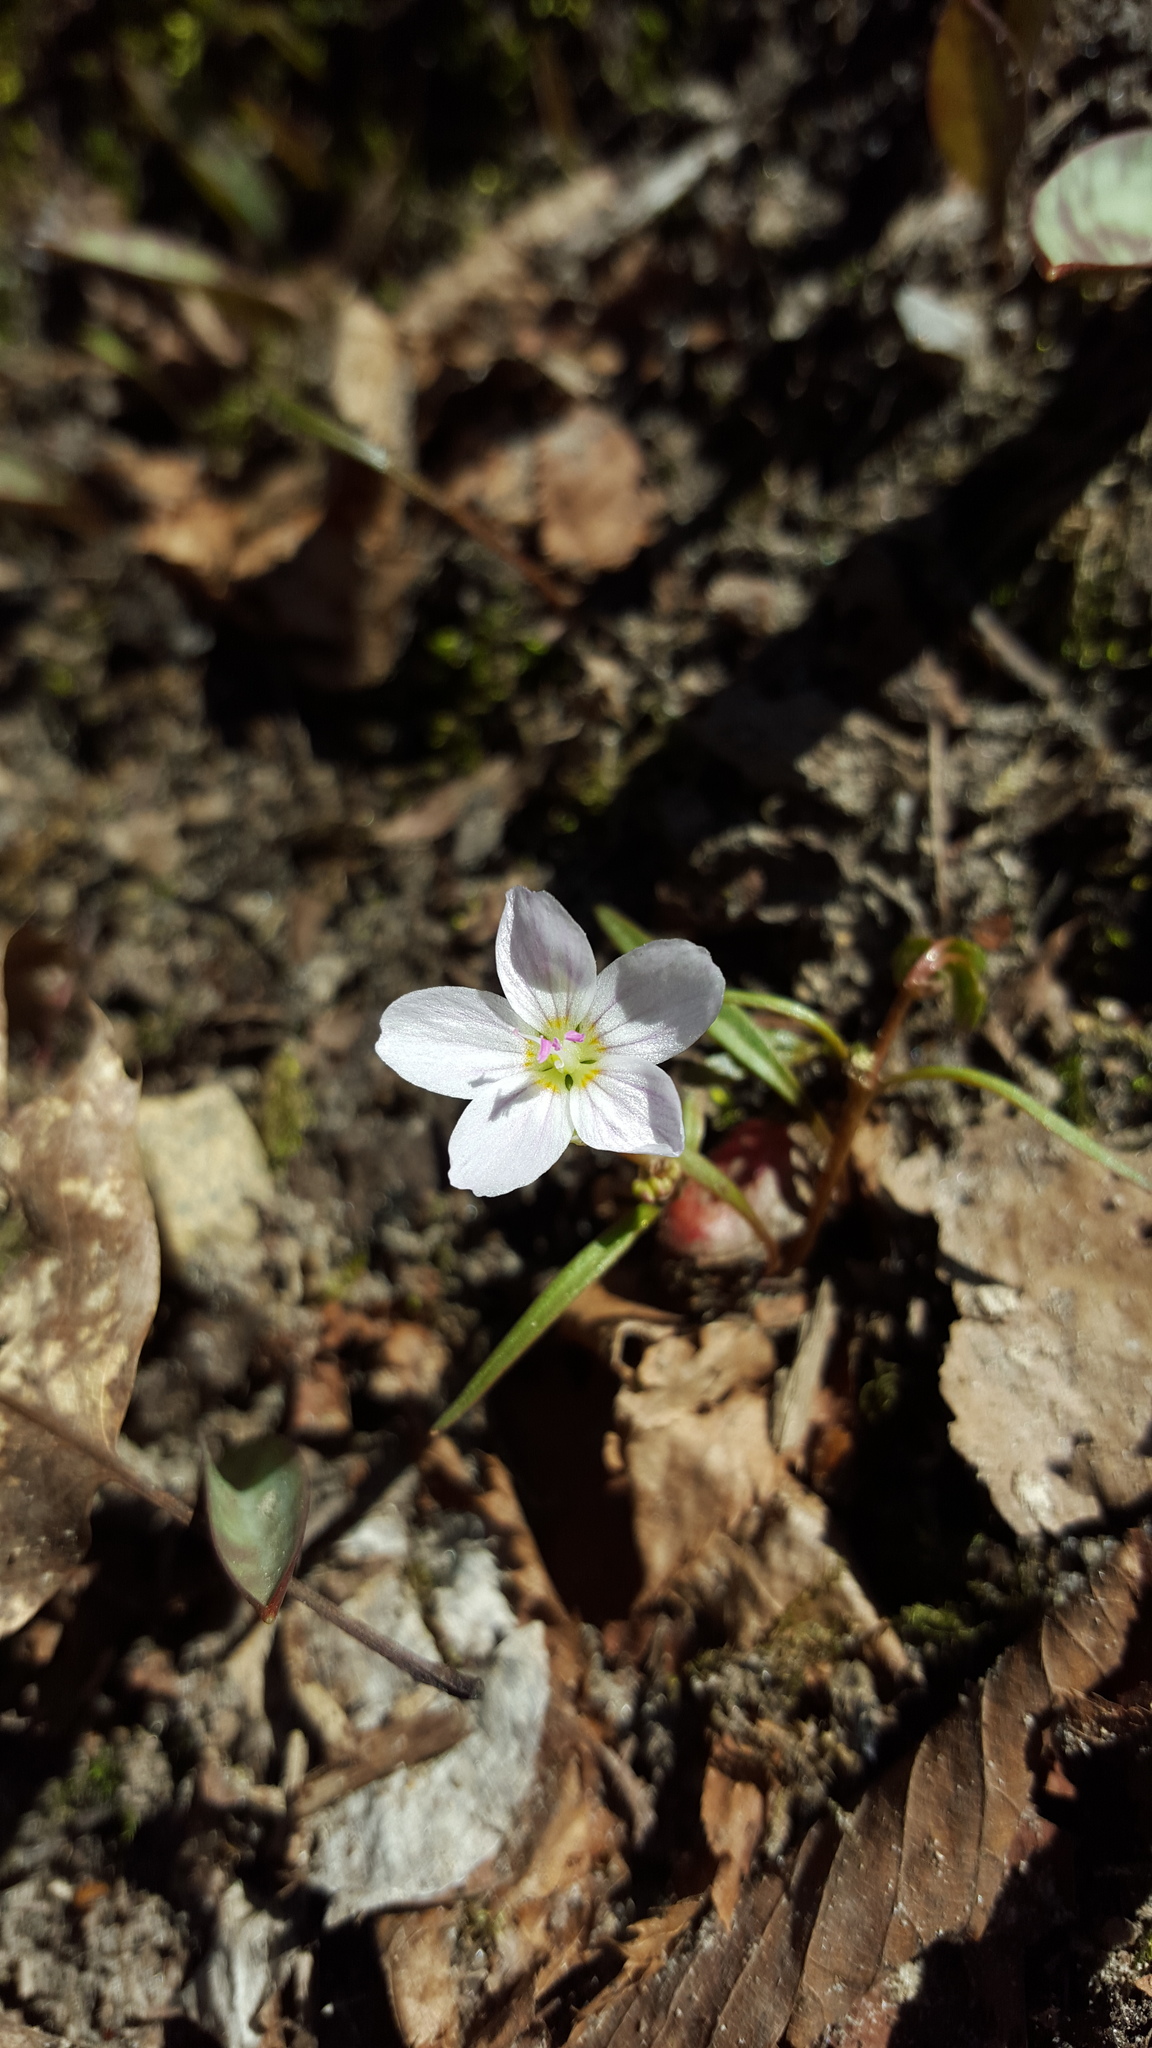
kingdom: Plantae
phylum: Tracheophyta
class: Magnoliopsida
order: Caryophyllales
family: Montiaceae
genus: Claytonia
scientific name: Claytonia virginica
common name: Virginia springbeauty
